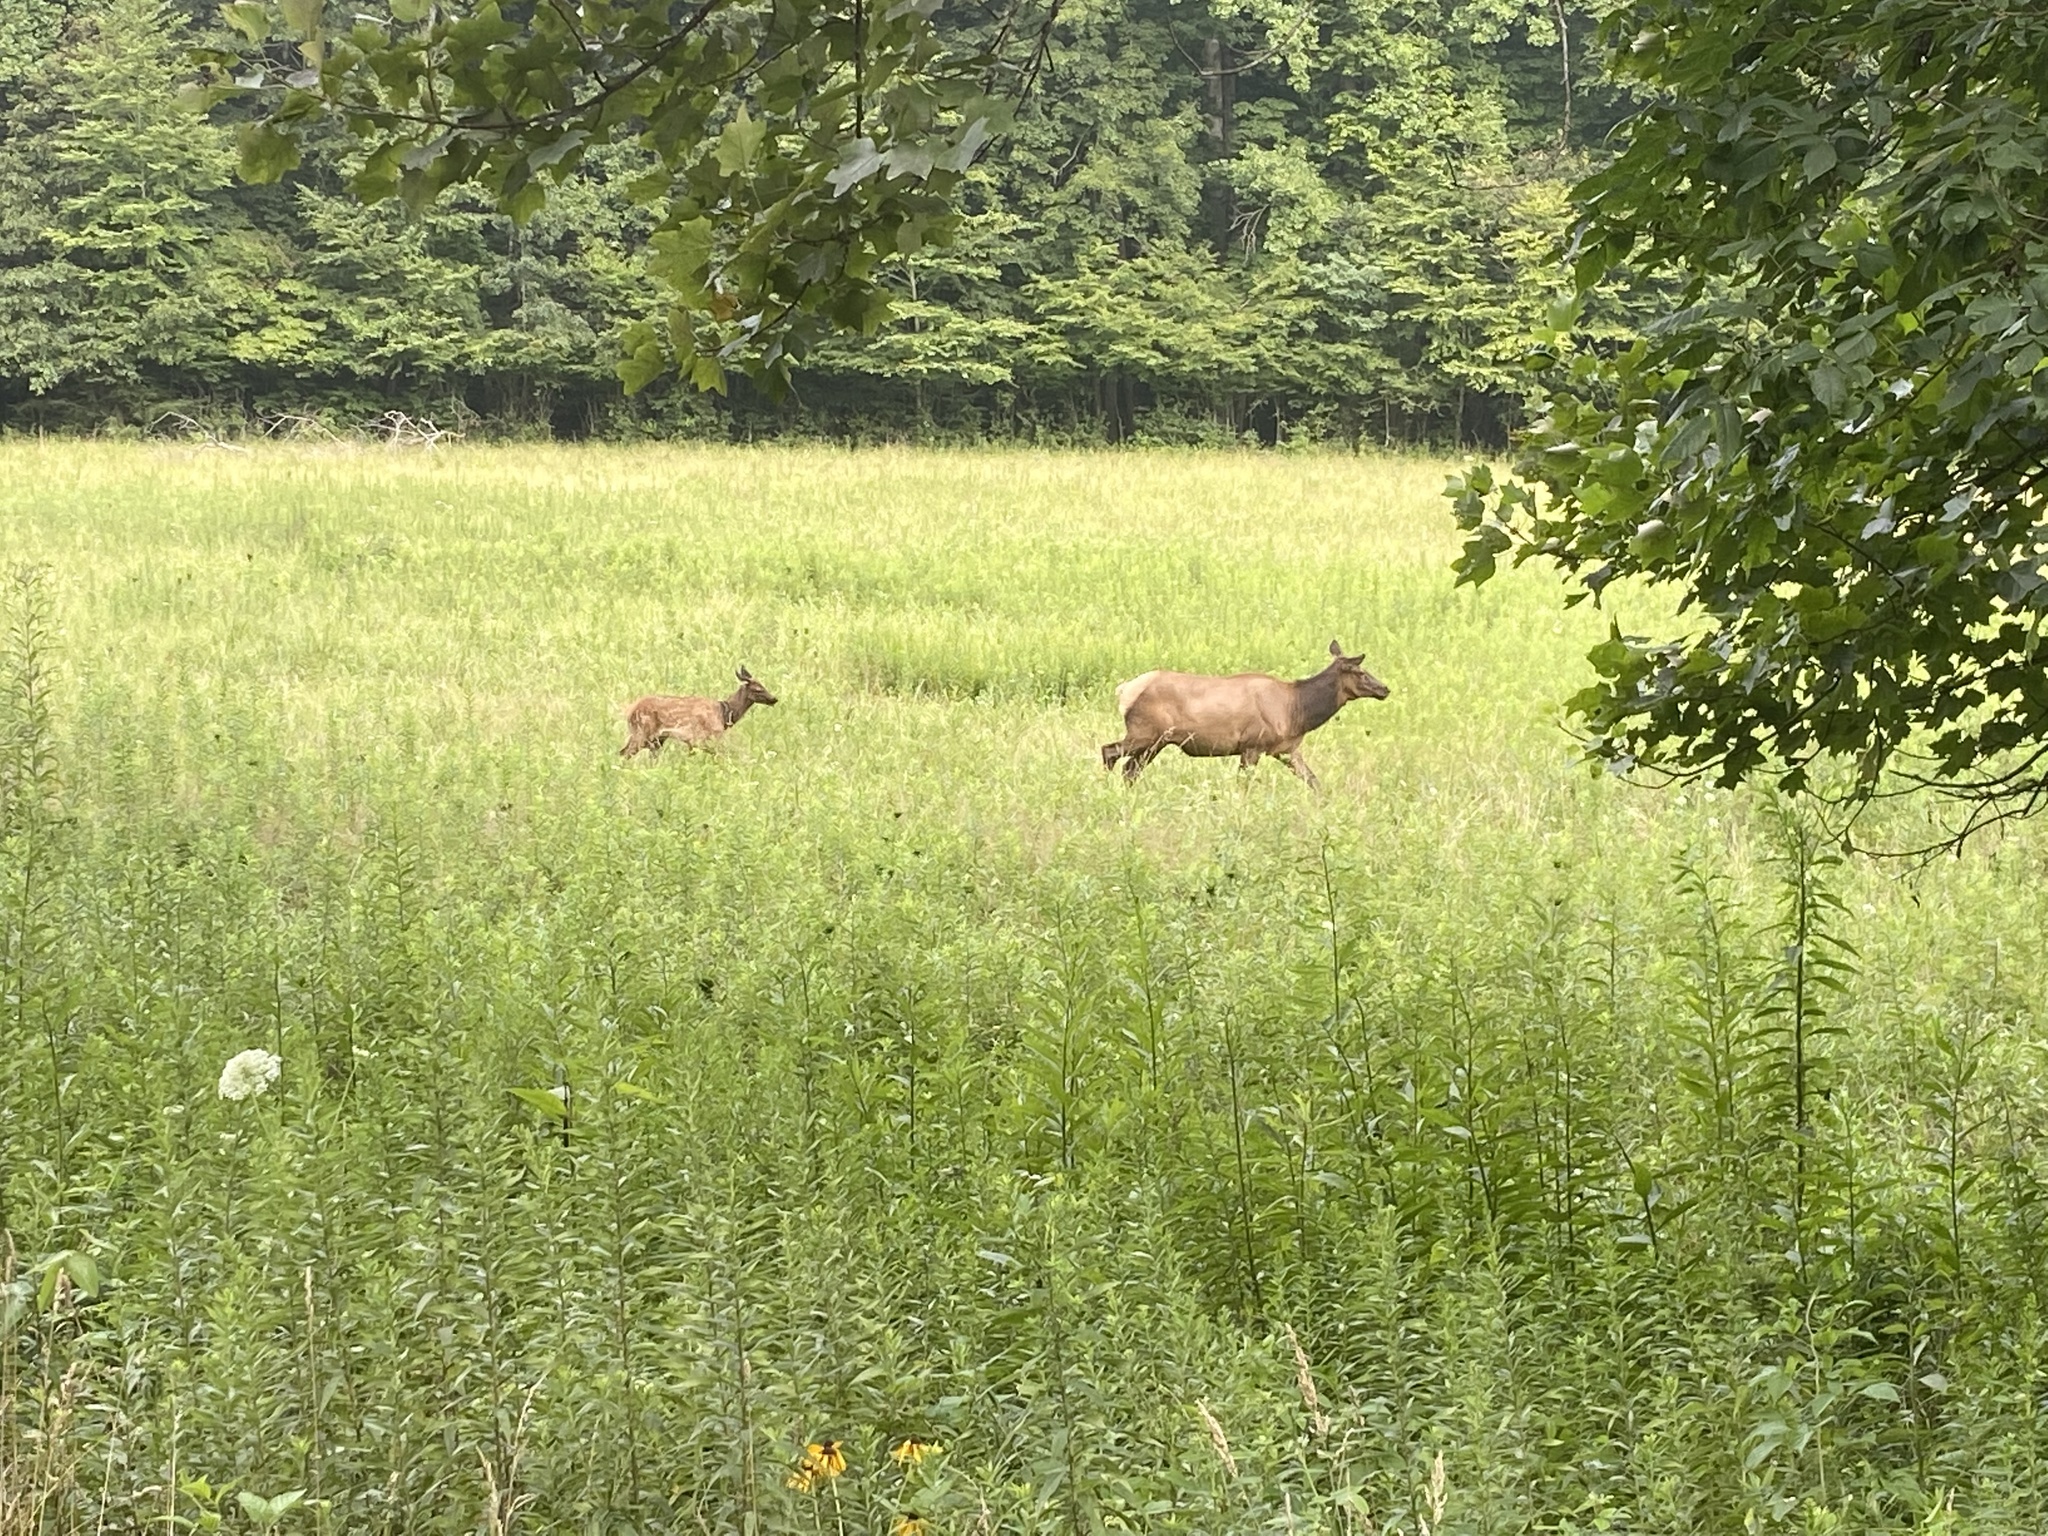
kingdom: Animalia
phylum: Chordata
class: Mammalia
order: Artiodactyla
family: Cervidae
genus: Cervus
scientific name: Cervus elaphus
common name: Red deer
